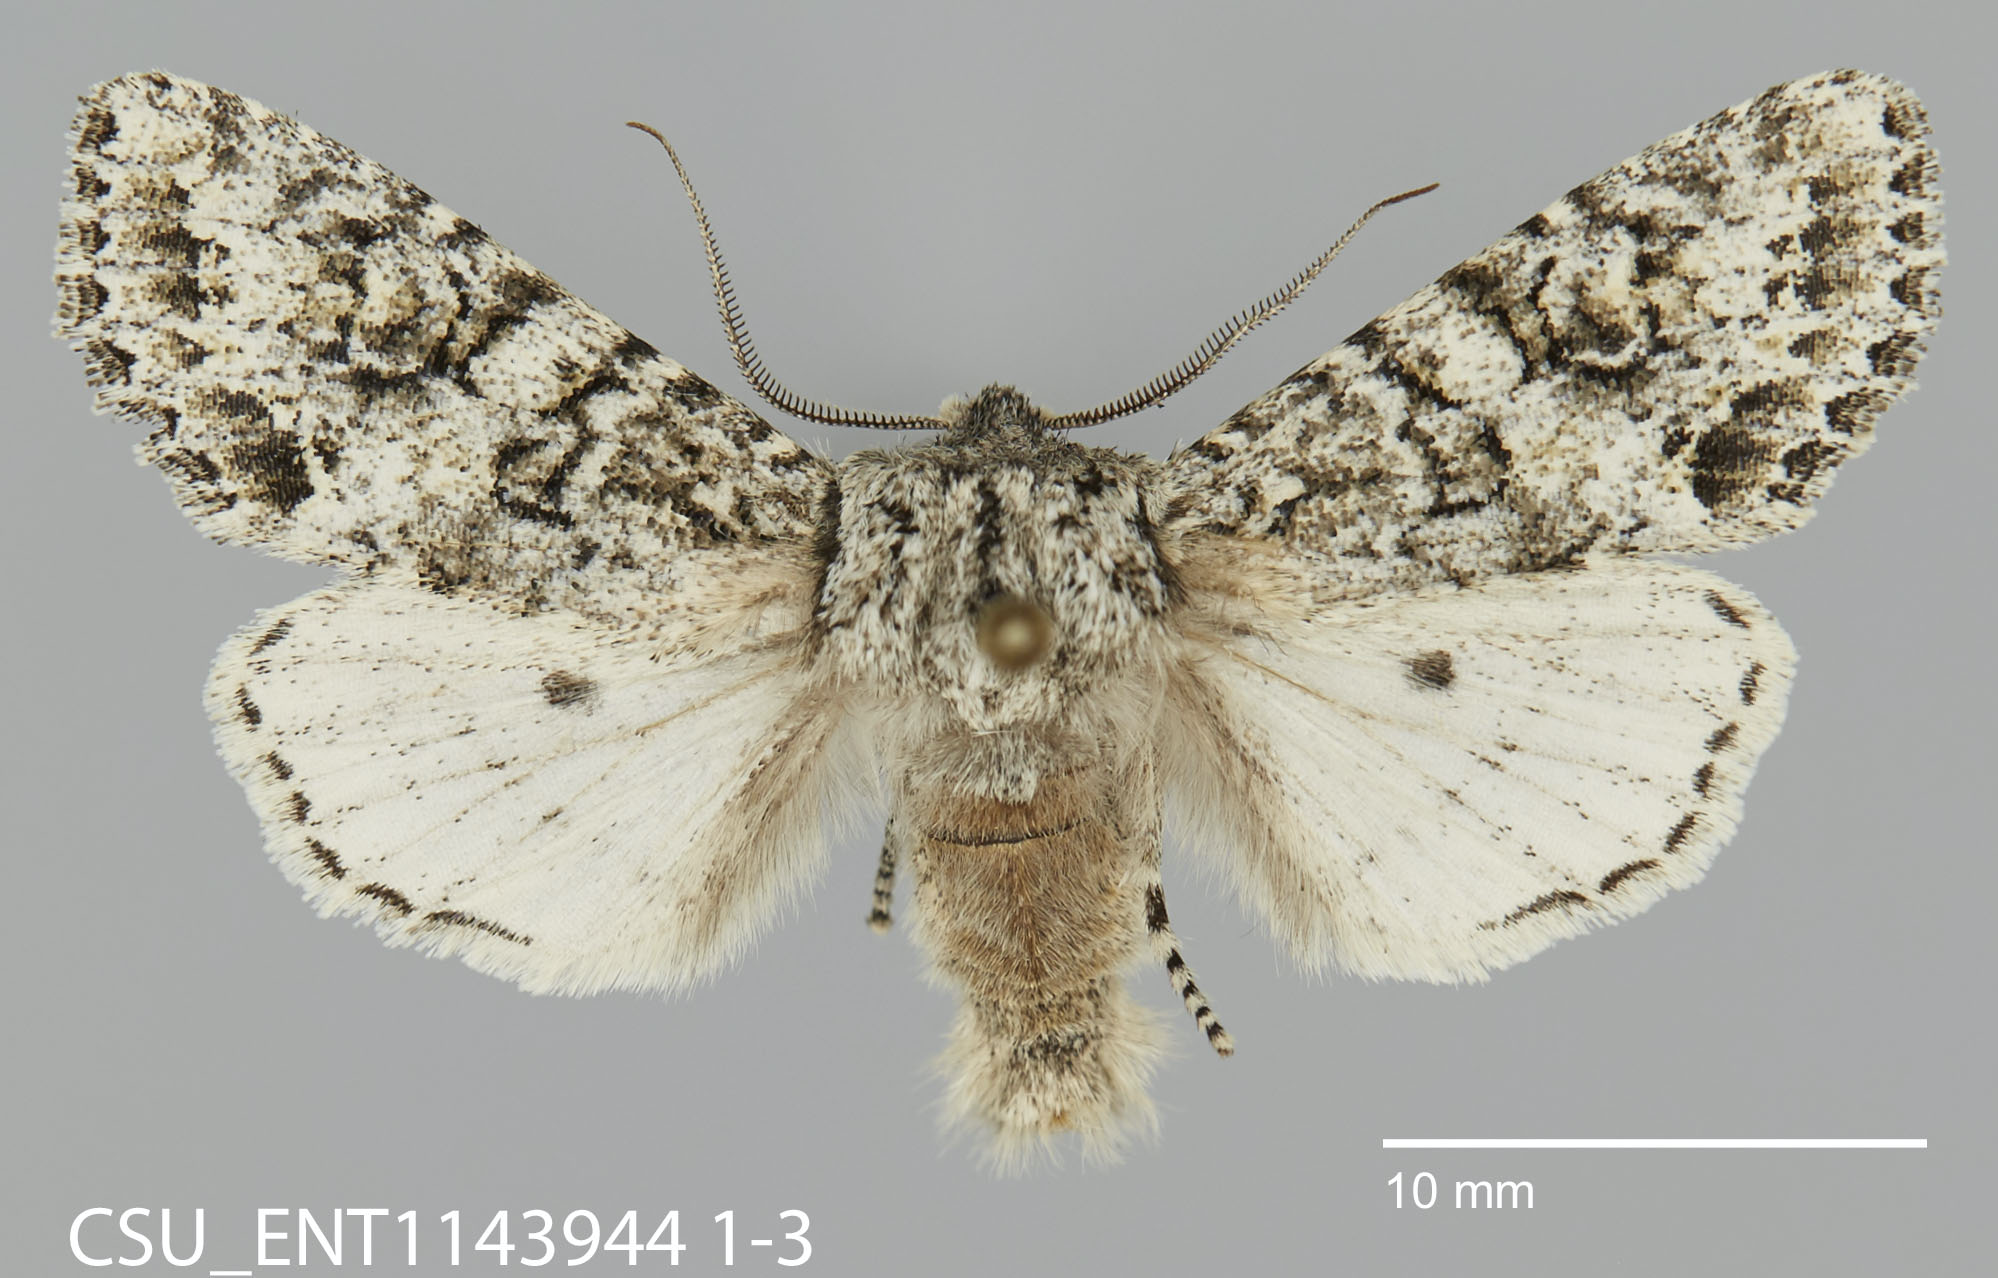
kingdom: Animalia
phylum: Arthropoda
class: Insecta
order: Lepidoptera
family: Noctuidae
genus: Egira
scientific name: Egira cognata
